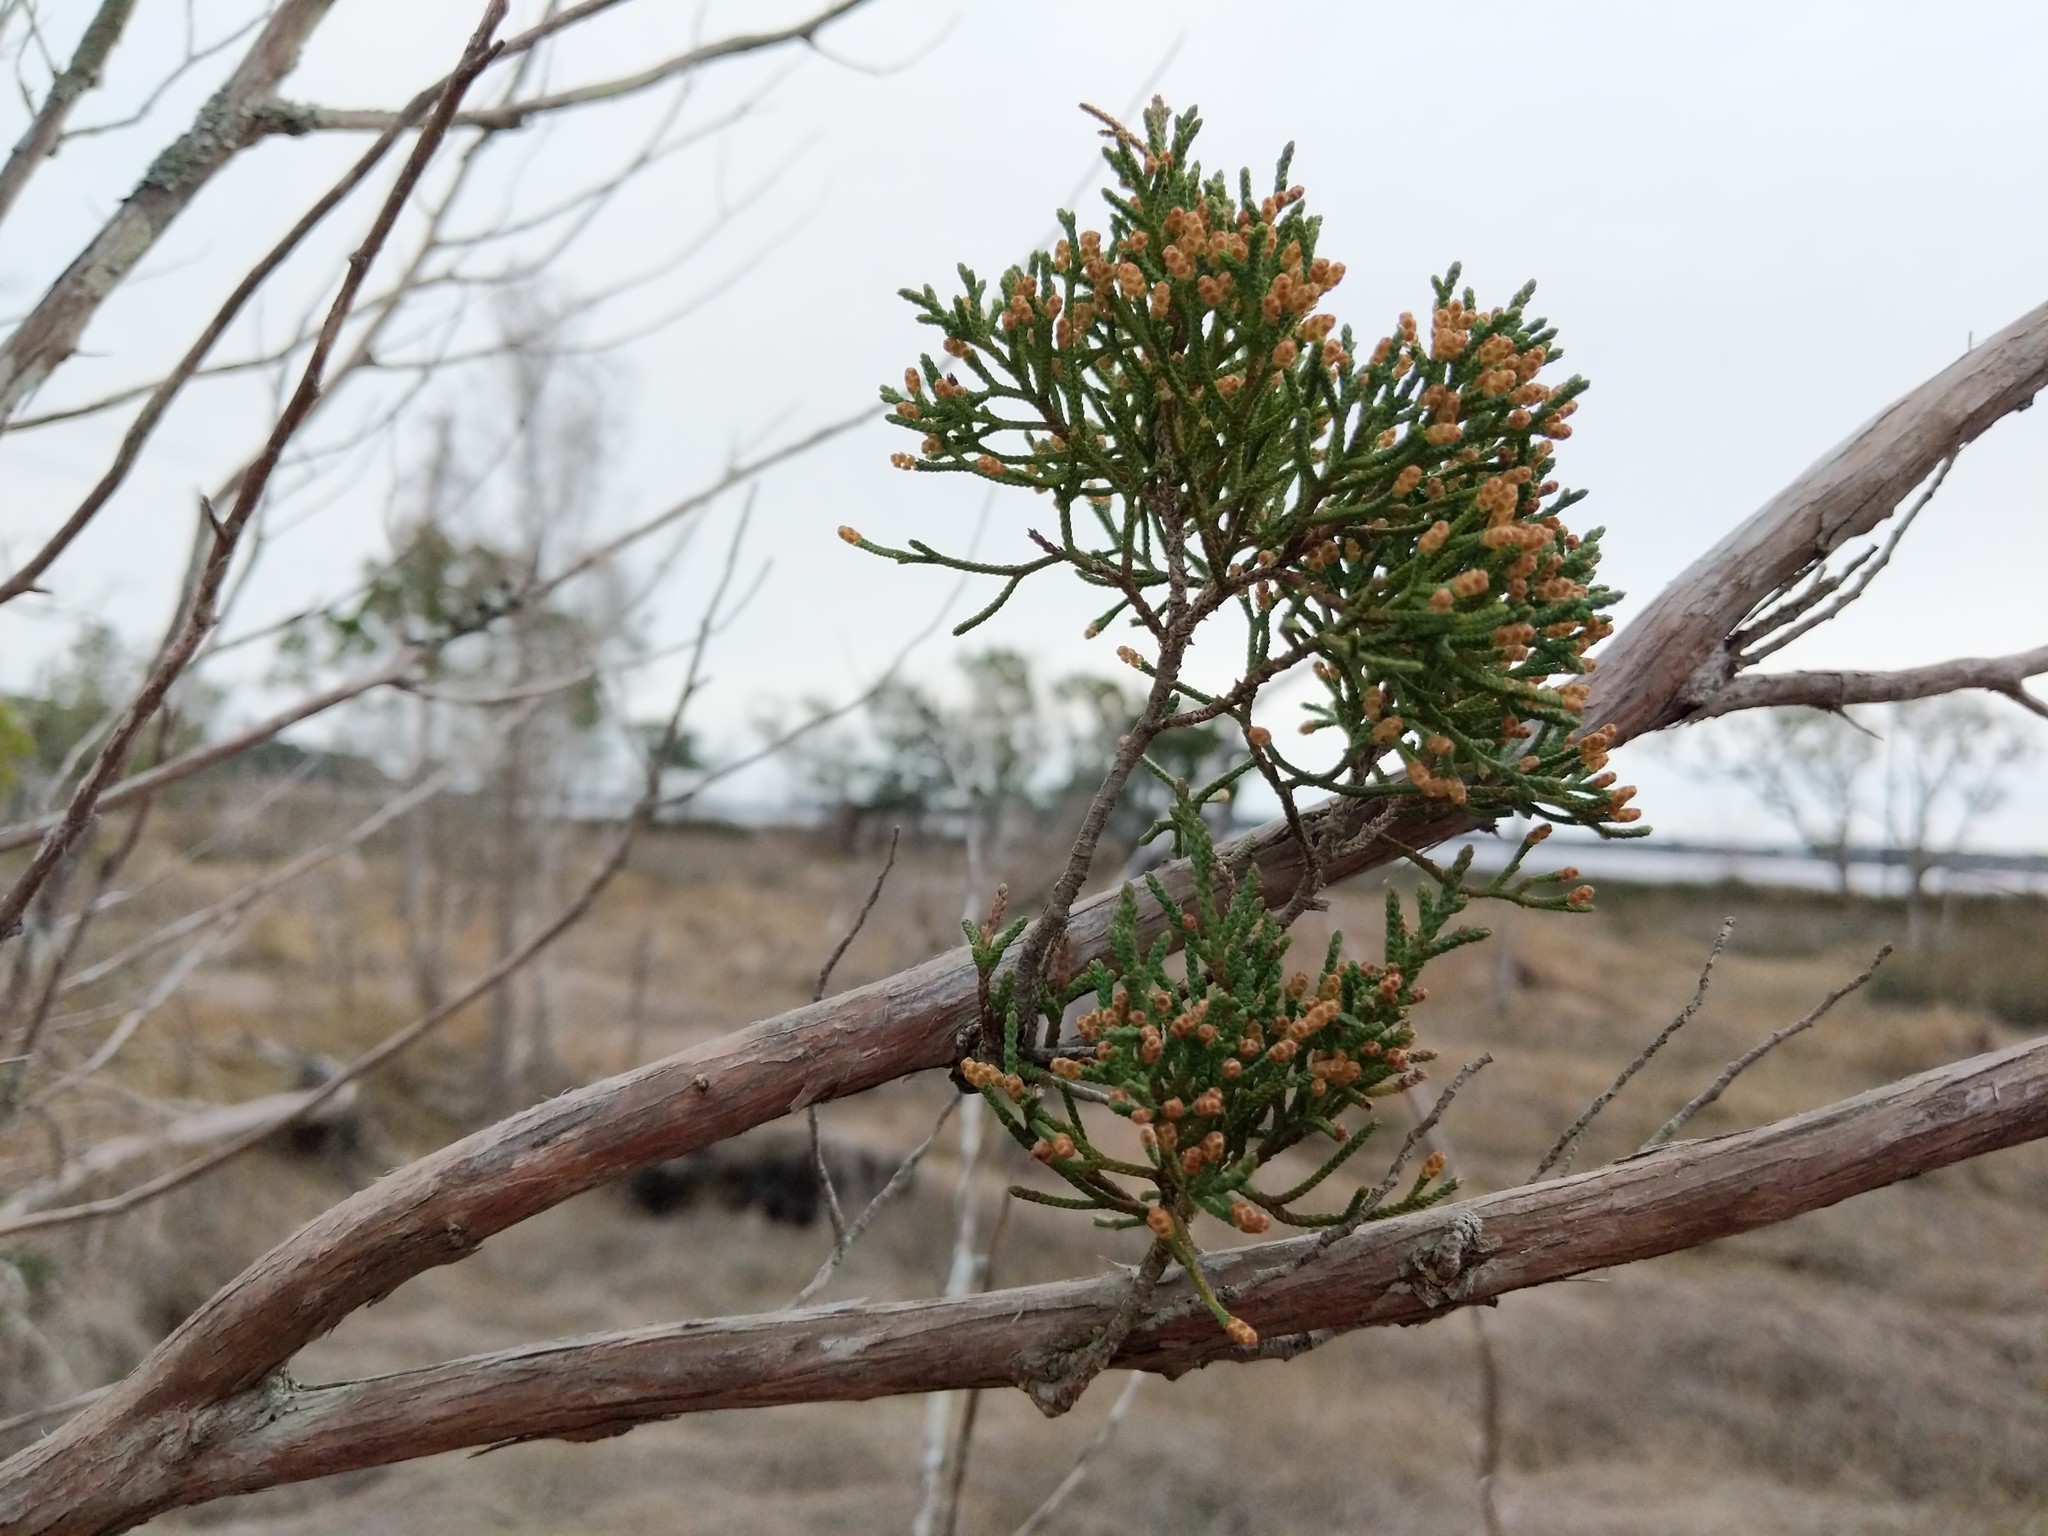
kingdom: Plantae
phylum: Tracheophyta
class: Pinopsida
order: Pinales
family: Cupressaceae
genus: Juniperus
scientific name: Juniperus virginiana
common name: Red juniper
